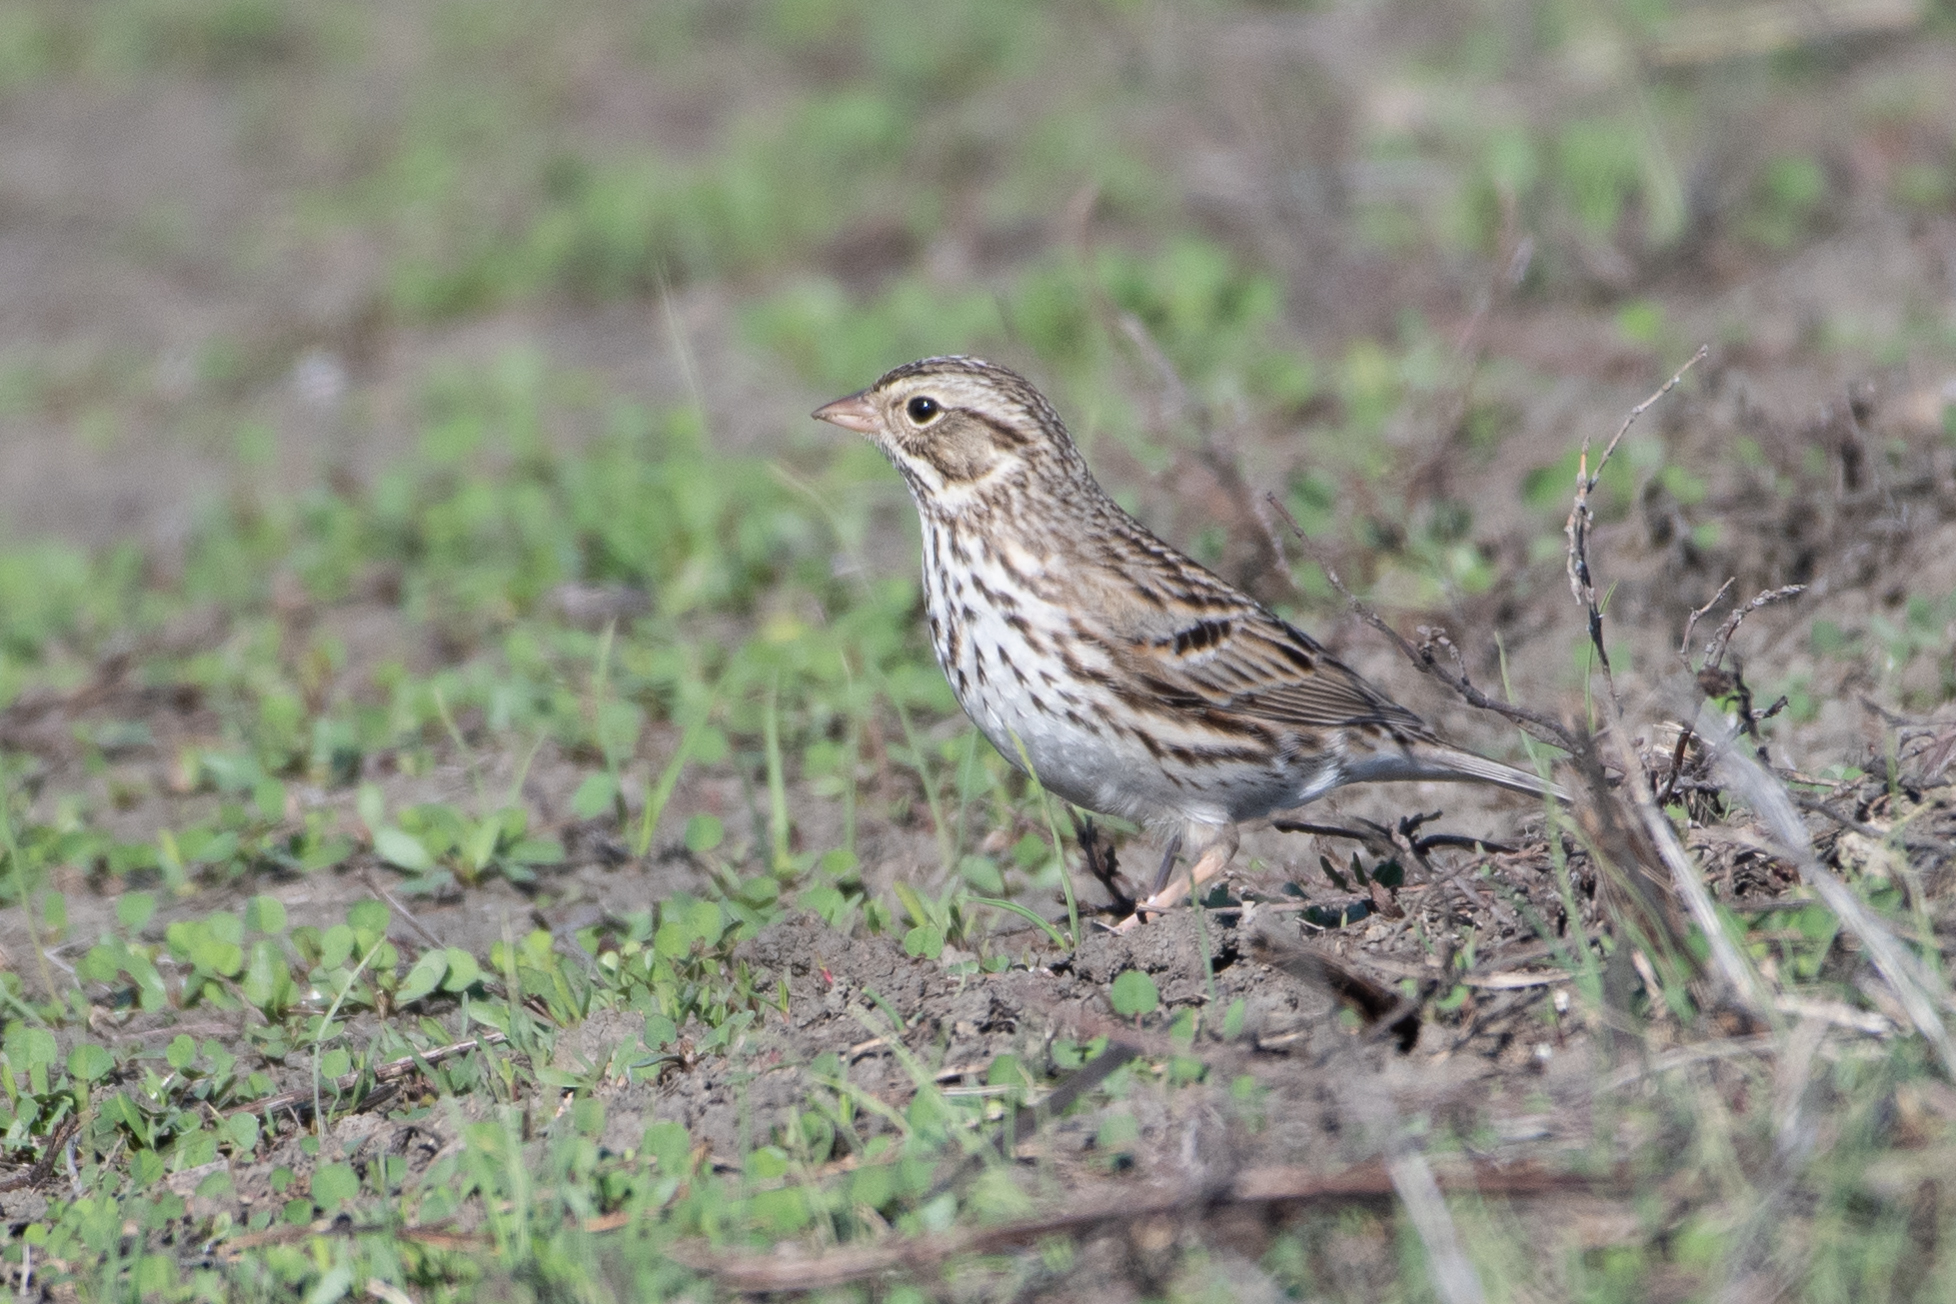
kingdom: Animalia
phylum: Chordata
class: Aves
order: Passeriformes
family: Passerellidae
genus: Passerculus
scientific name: Passerculus sandwichensis
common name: Savannah sparrow
